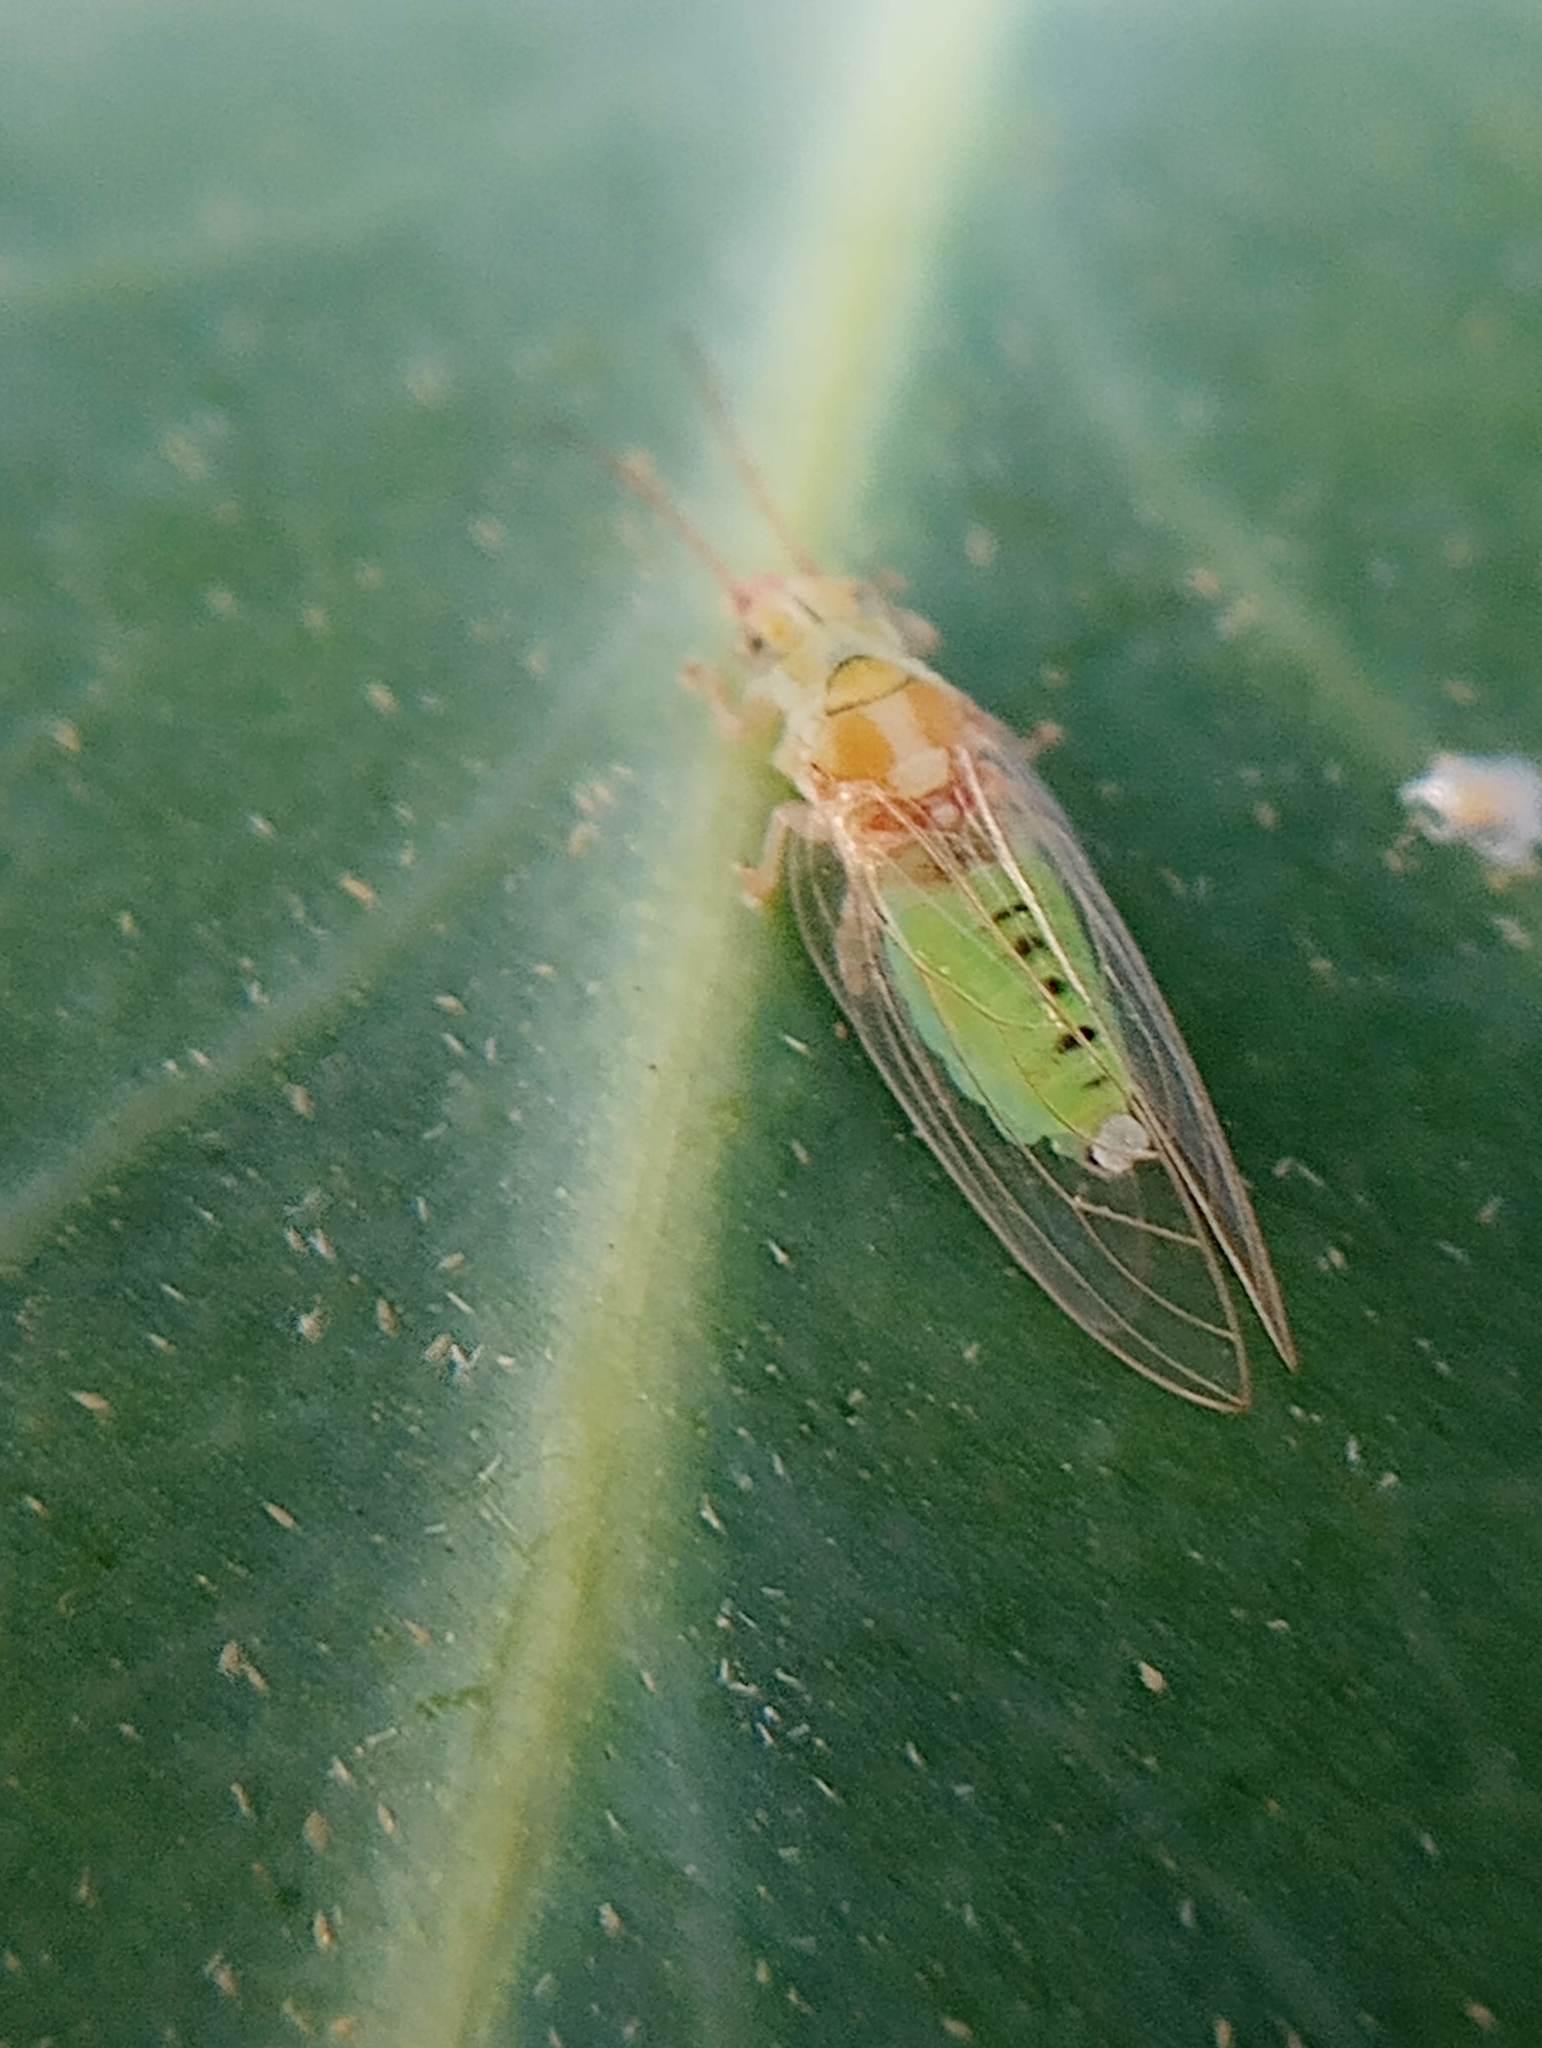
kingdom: Animalia
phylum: Arthropoda
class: Insecta
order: Hemiptera
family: Aphalaridae
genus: Glycaspis
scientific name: Glycaspis brimblecombei
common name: Red gum lerp psyllid
